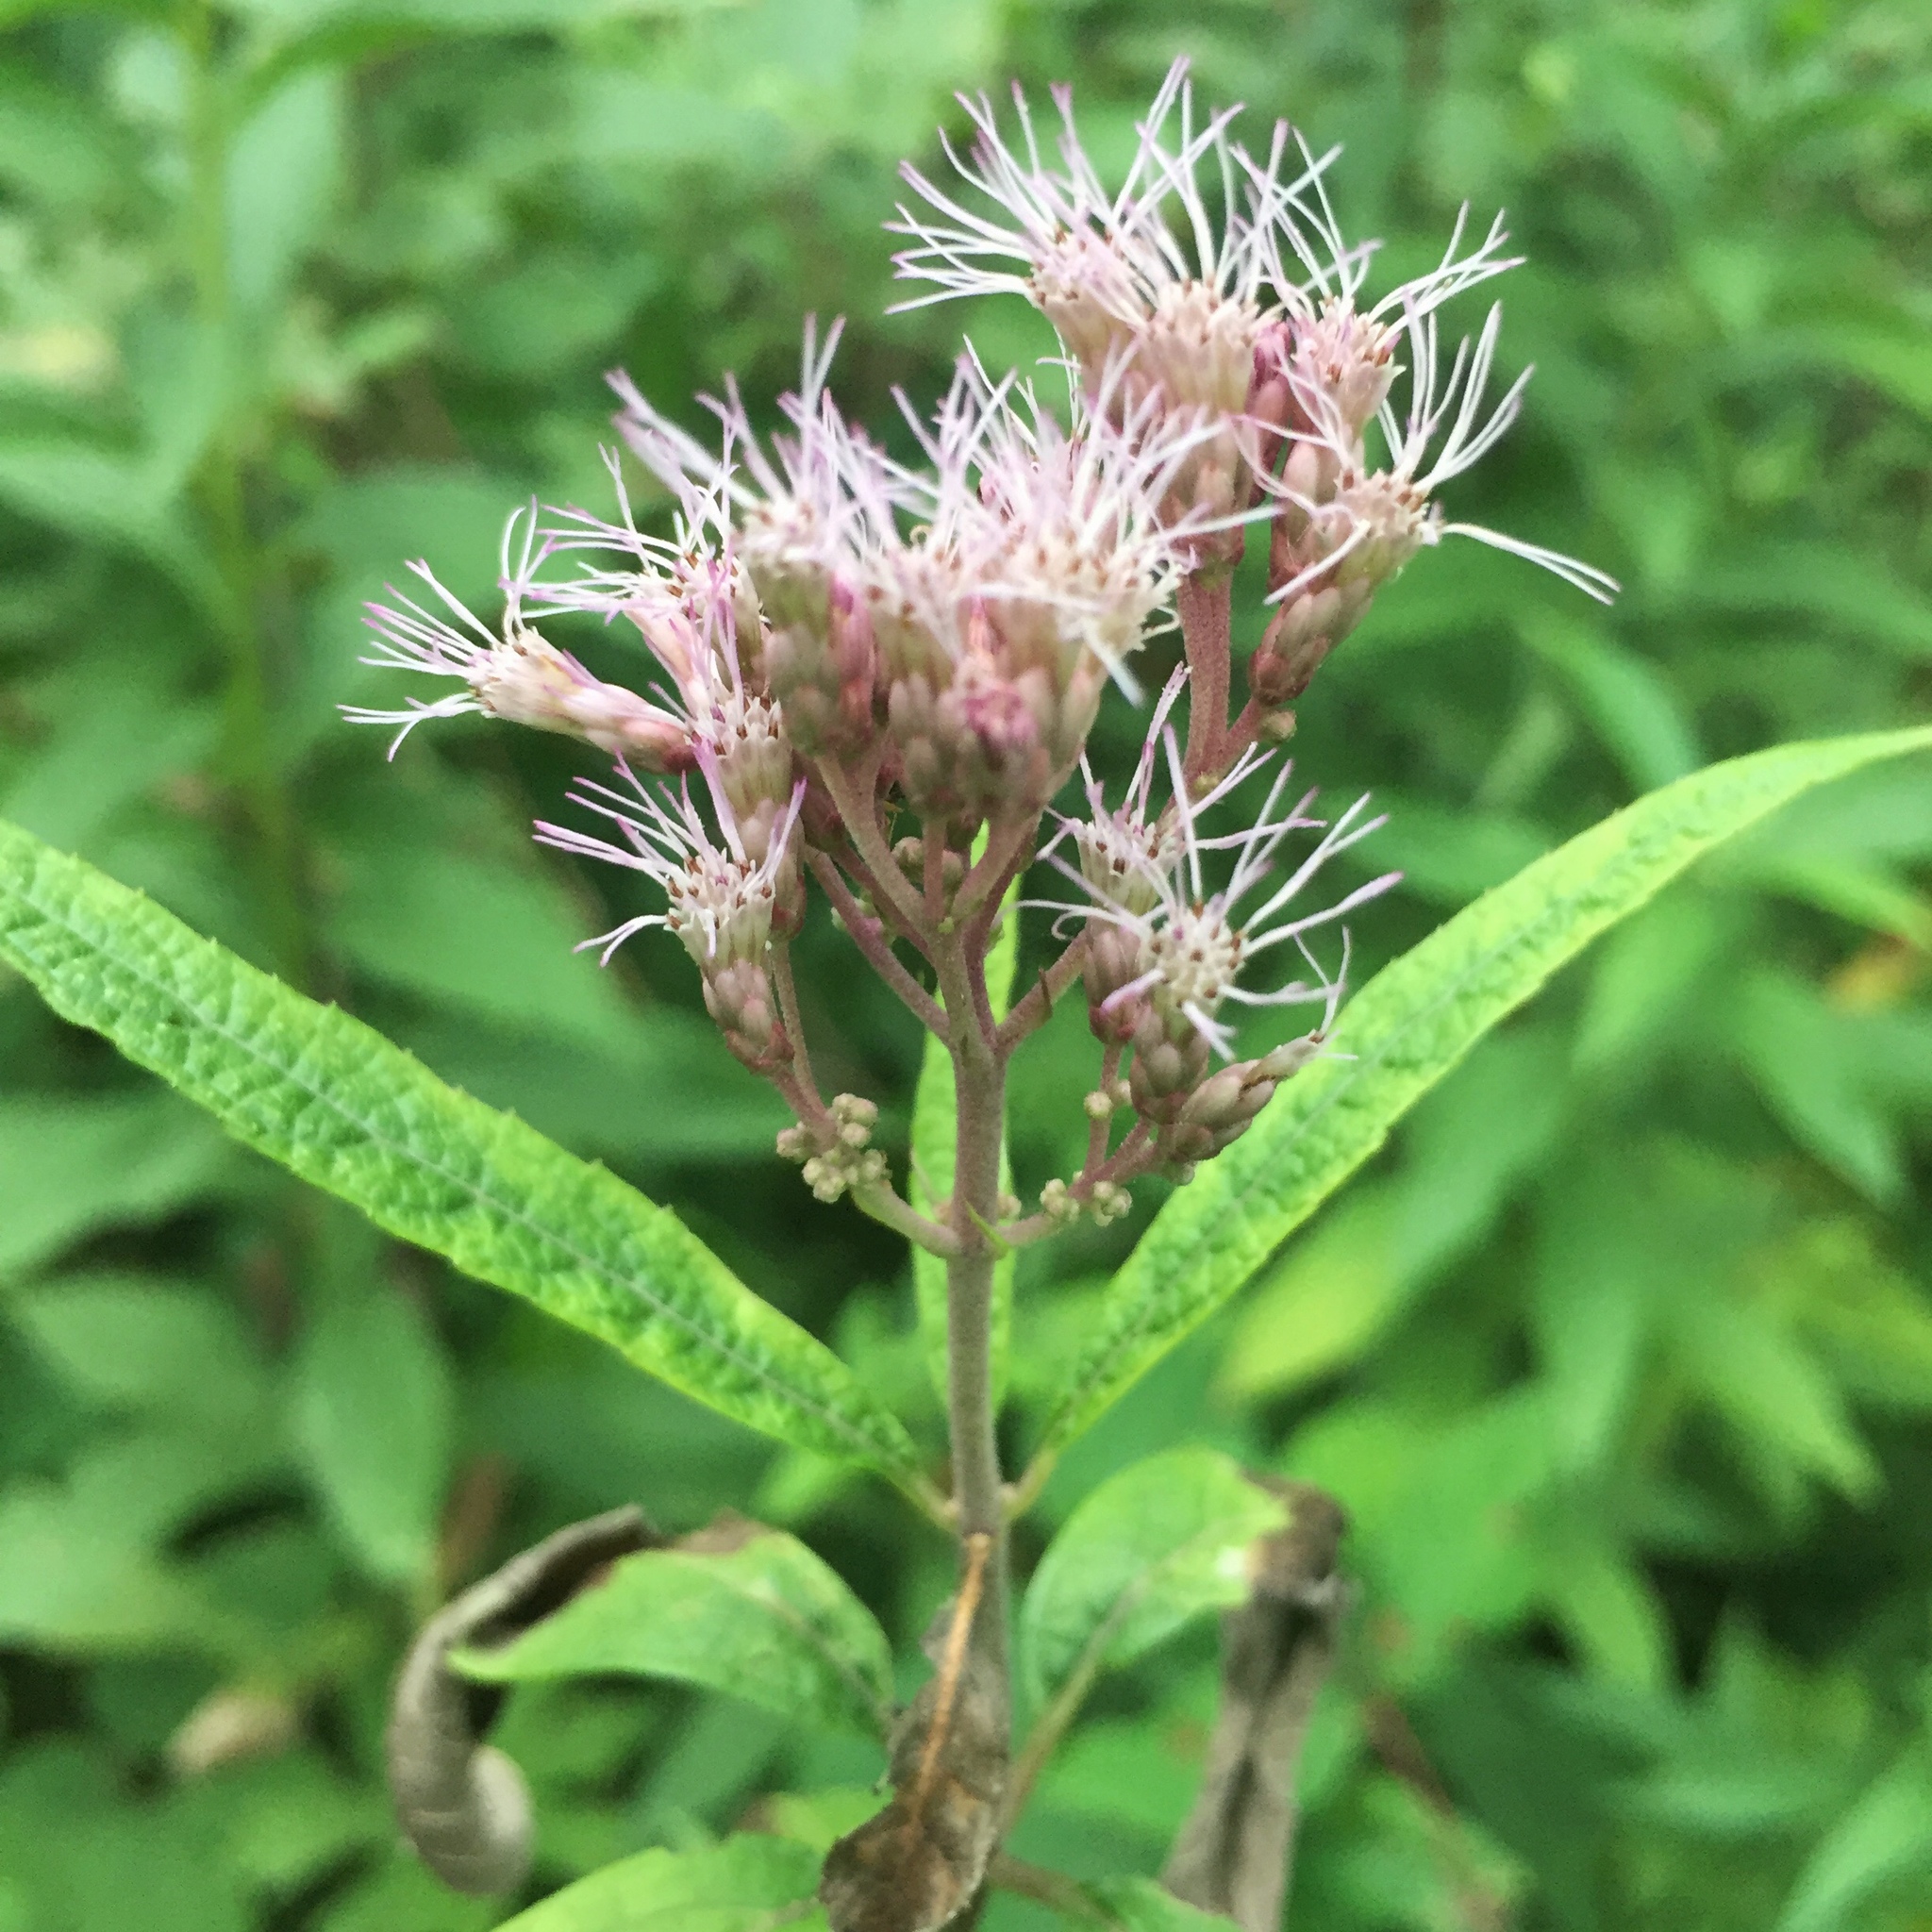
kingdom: Plantae
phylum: Tracheophyta
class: Magnoliopsida
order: Asterales
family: Asteraceae
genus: Eutrochium
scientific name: Eutrochium maculatum
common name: Spotted joe pye weed
